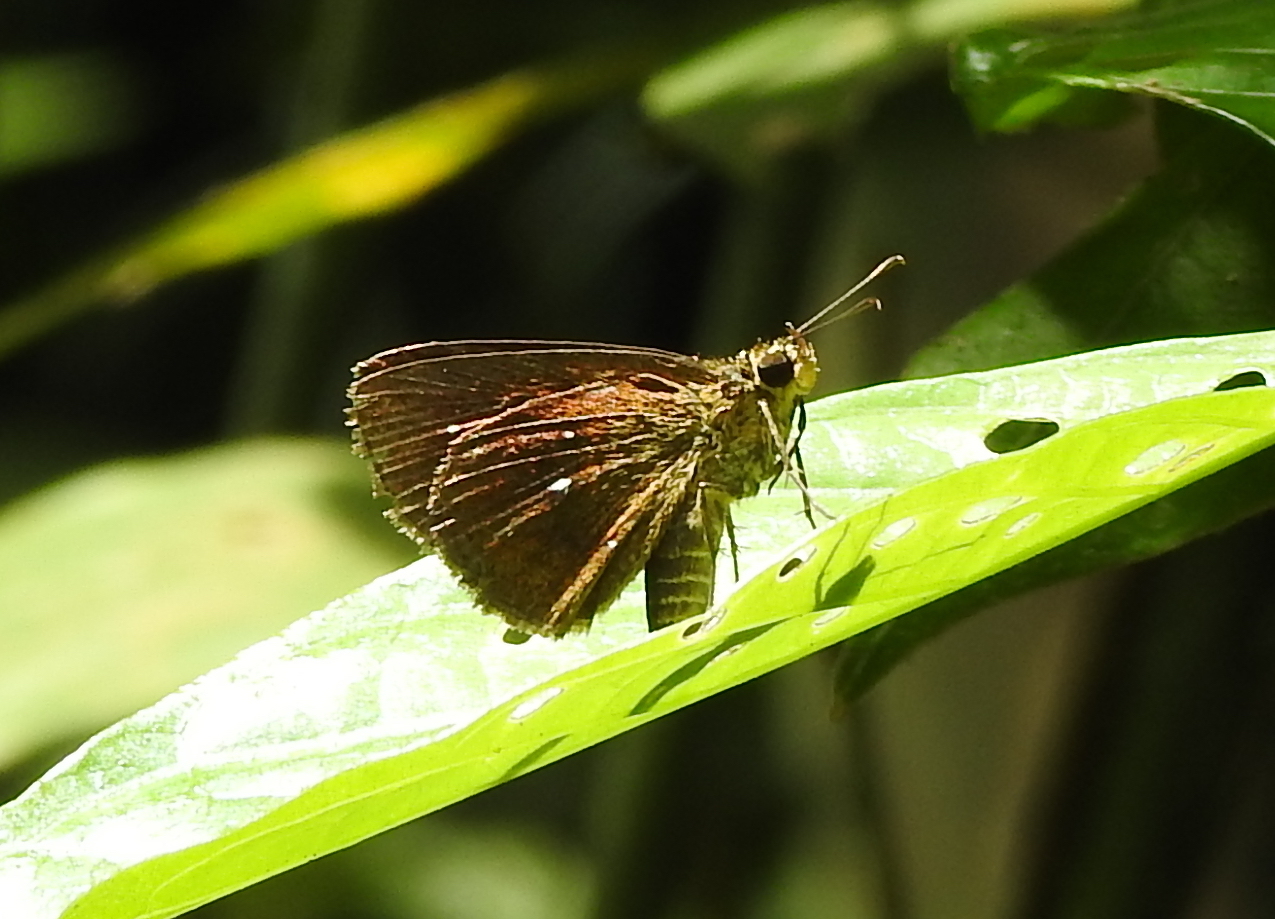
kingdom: Animalia
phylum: Arthropoda
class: Insecta
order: Lepidoptera
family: Hesperiidae
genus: Iambrix
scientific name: Iambrix salsala
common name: Chestnut bob
